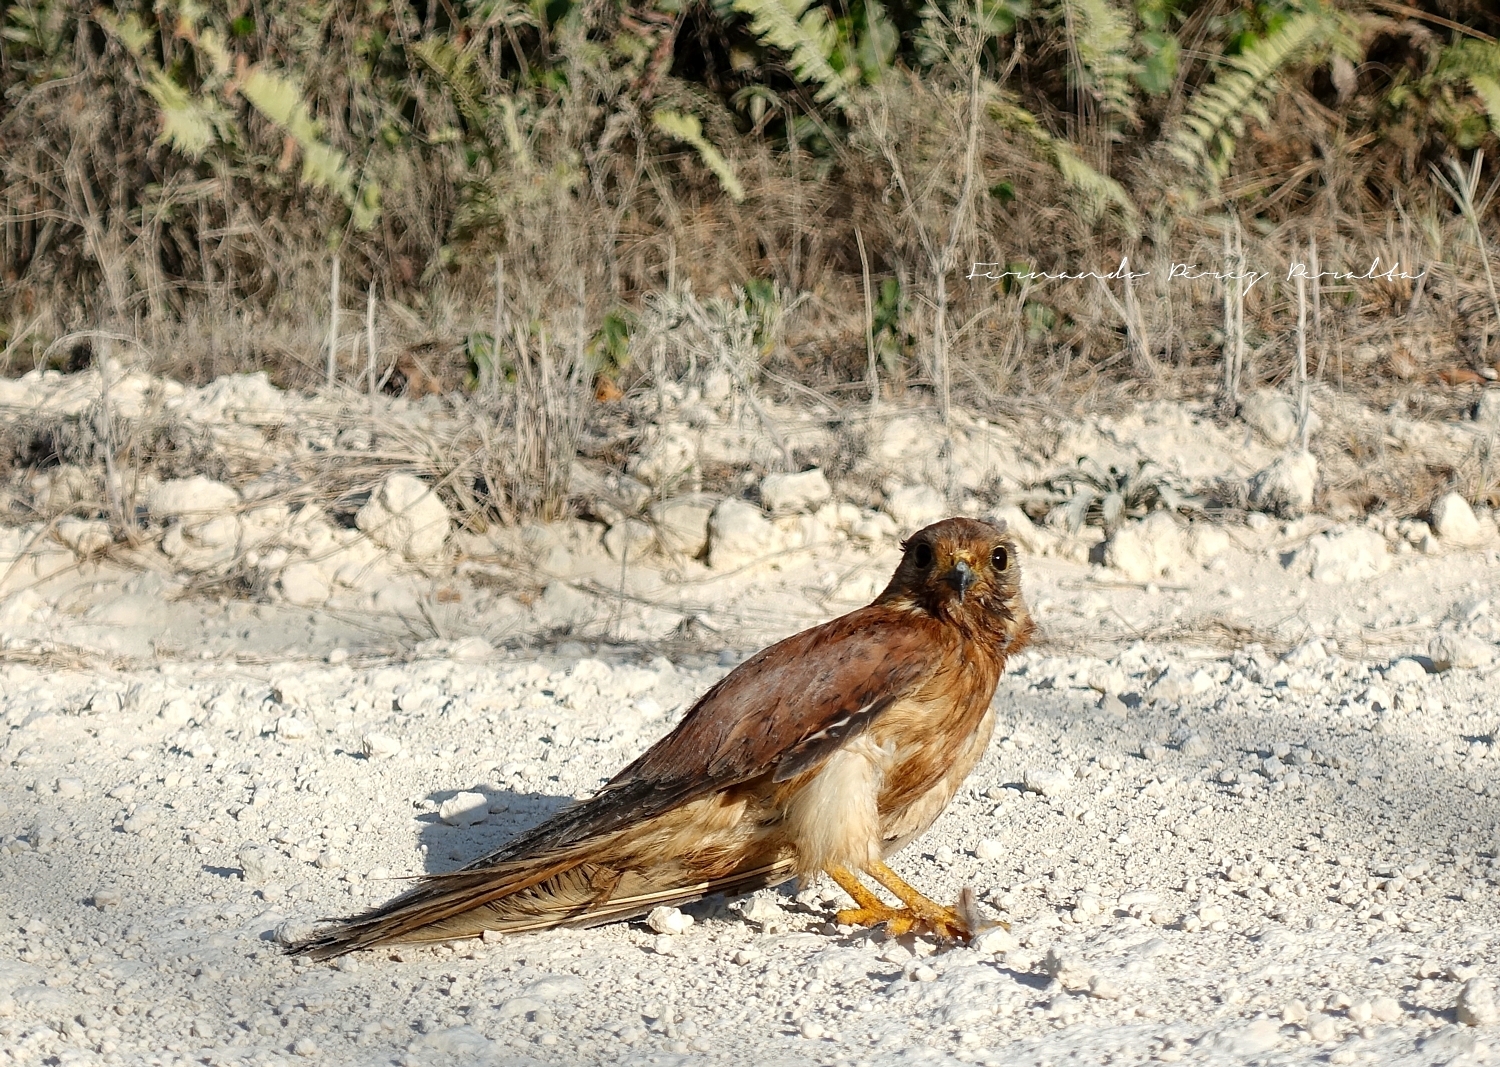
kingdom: Animalia
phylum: Chordata
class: Aves
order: Falconiformes
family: Falconidae
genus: Falco
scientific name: Falco cenchroides
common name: Nankeen kestrel
